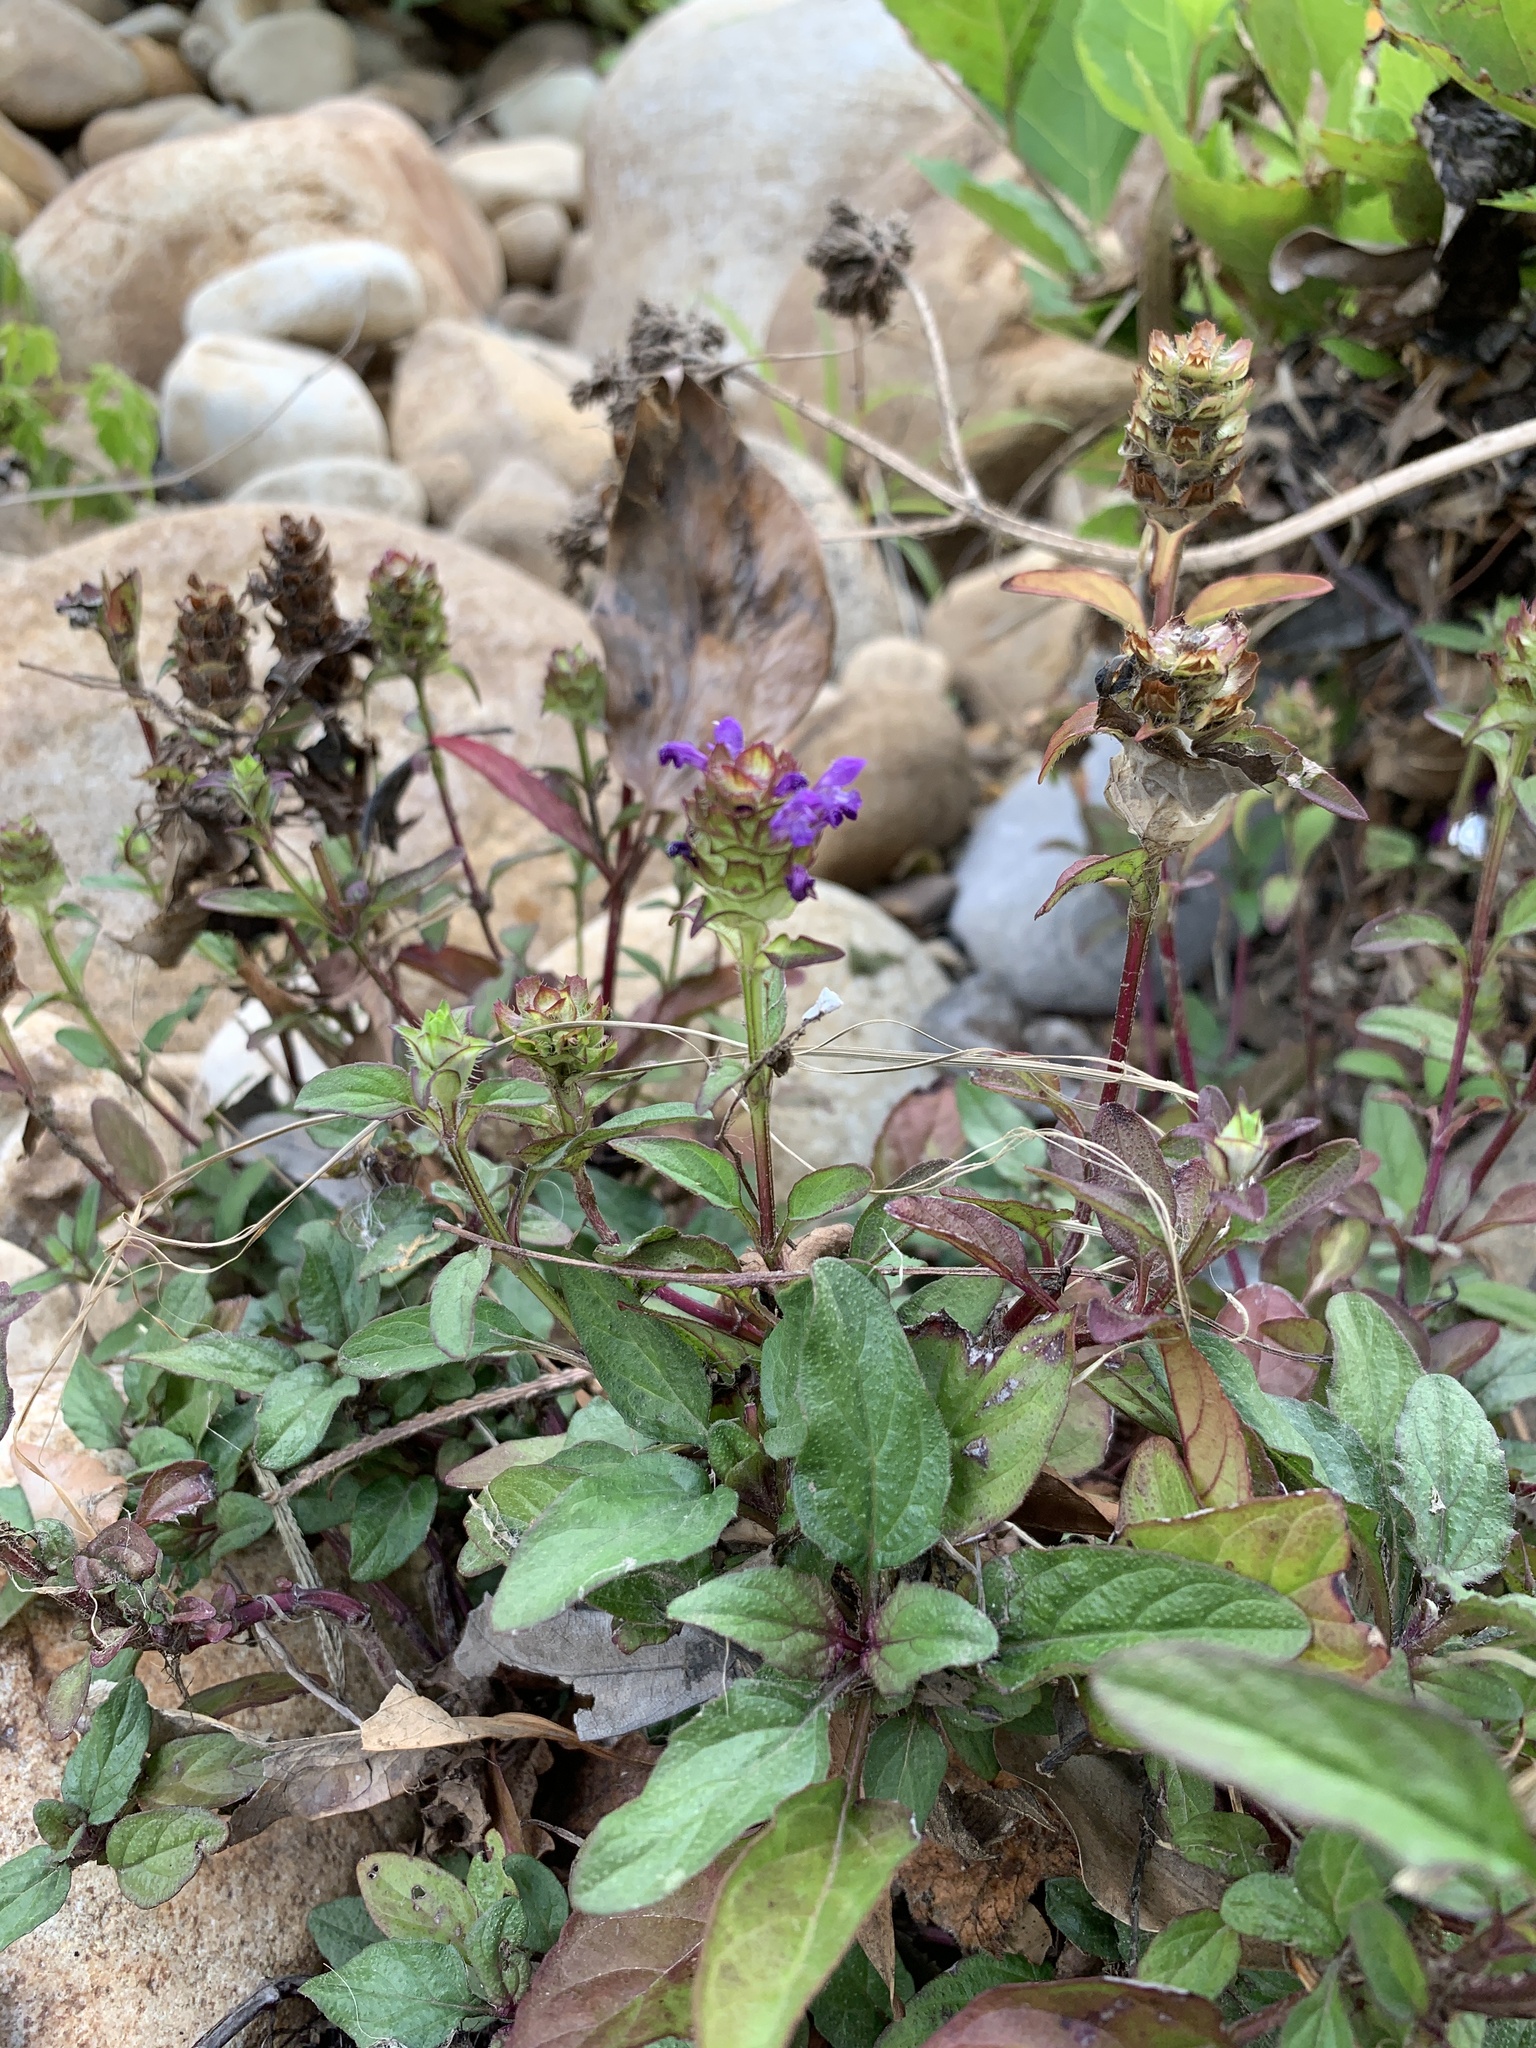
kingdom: Plantae
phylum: Tracheophyta
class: Magnoliopsida
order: Lamiales
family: Lamiaceae
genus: Prunella
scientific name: Prunella vulgaris
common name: Heal-all
